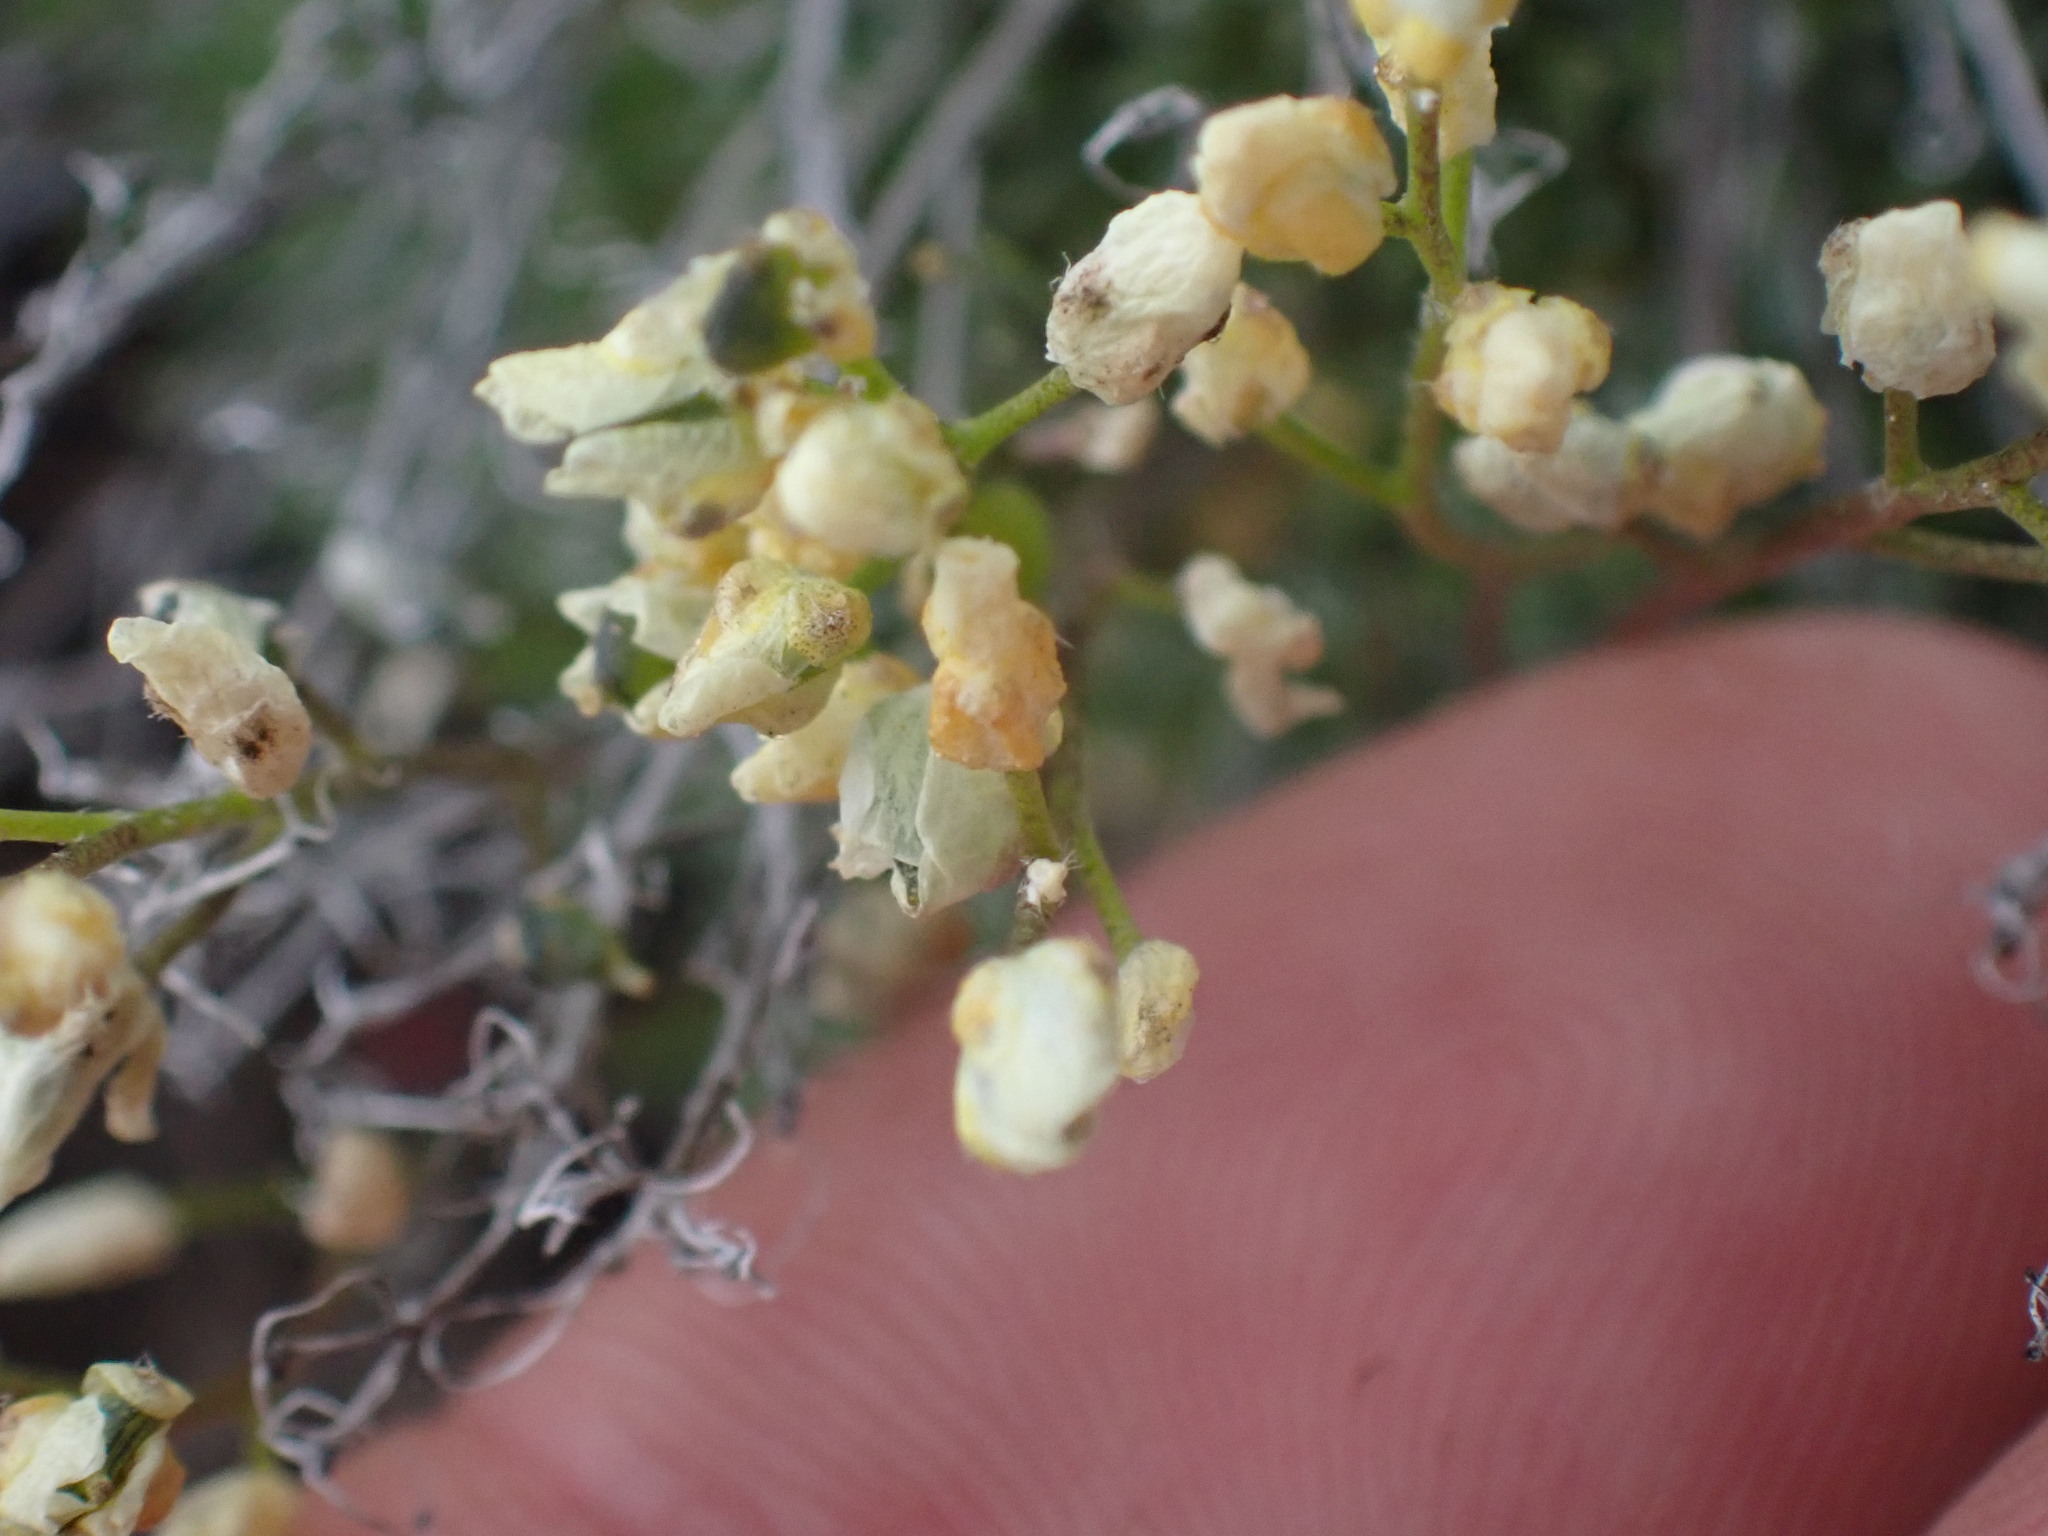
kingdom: Plantae
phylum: Tracheophyta
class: Magnoliopsida
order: Brassicales
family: Brassicaceae
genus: Draba
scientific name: Draba oligosperma
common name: Few-seed draba
